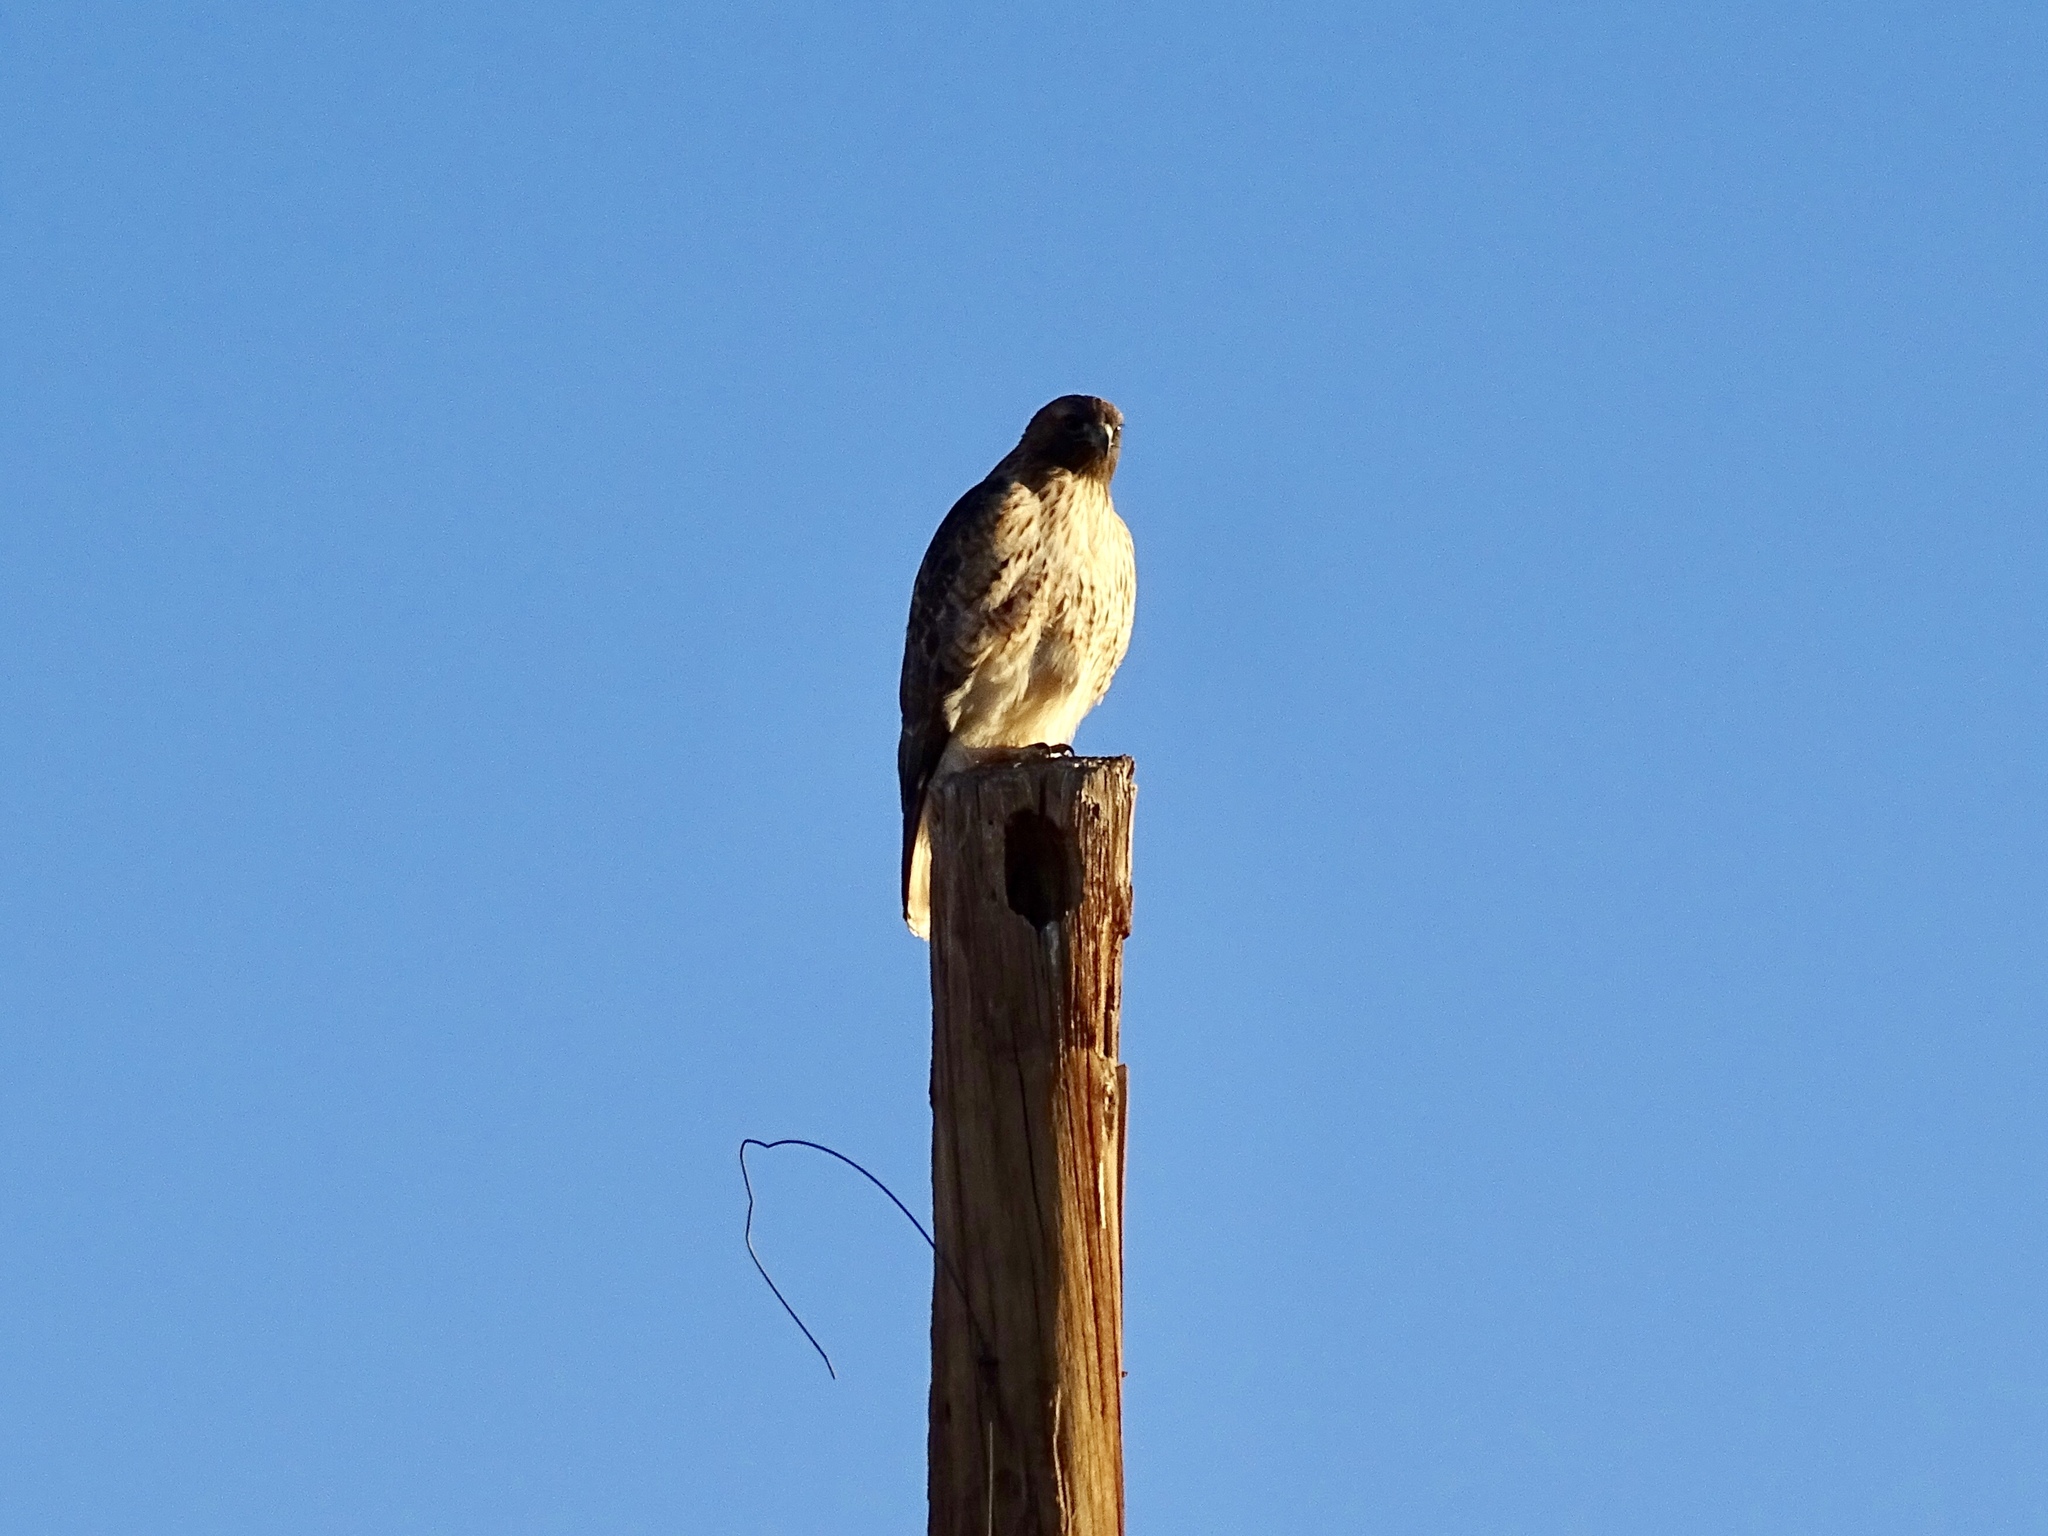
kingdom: Animalia
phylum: Chordata
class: Aves
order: Accipitriformes
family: Accipitridae
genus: Buteo
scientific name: Buteo jamaicensis
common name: Red-tailed hawk
